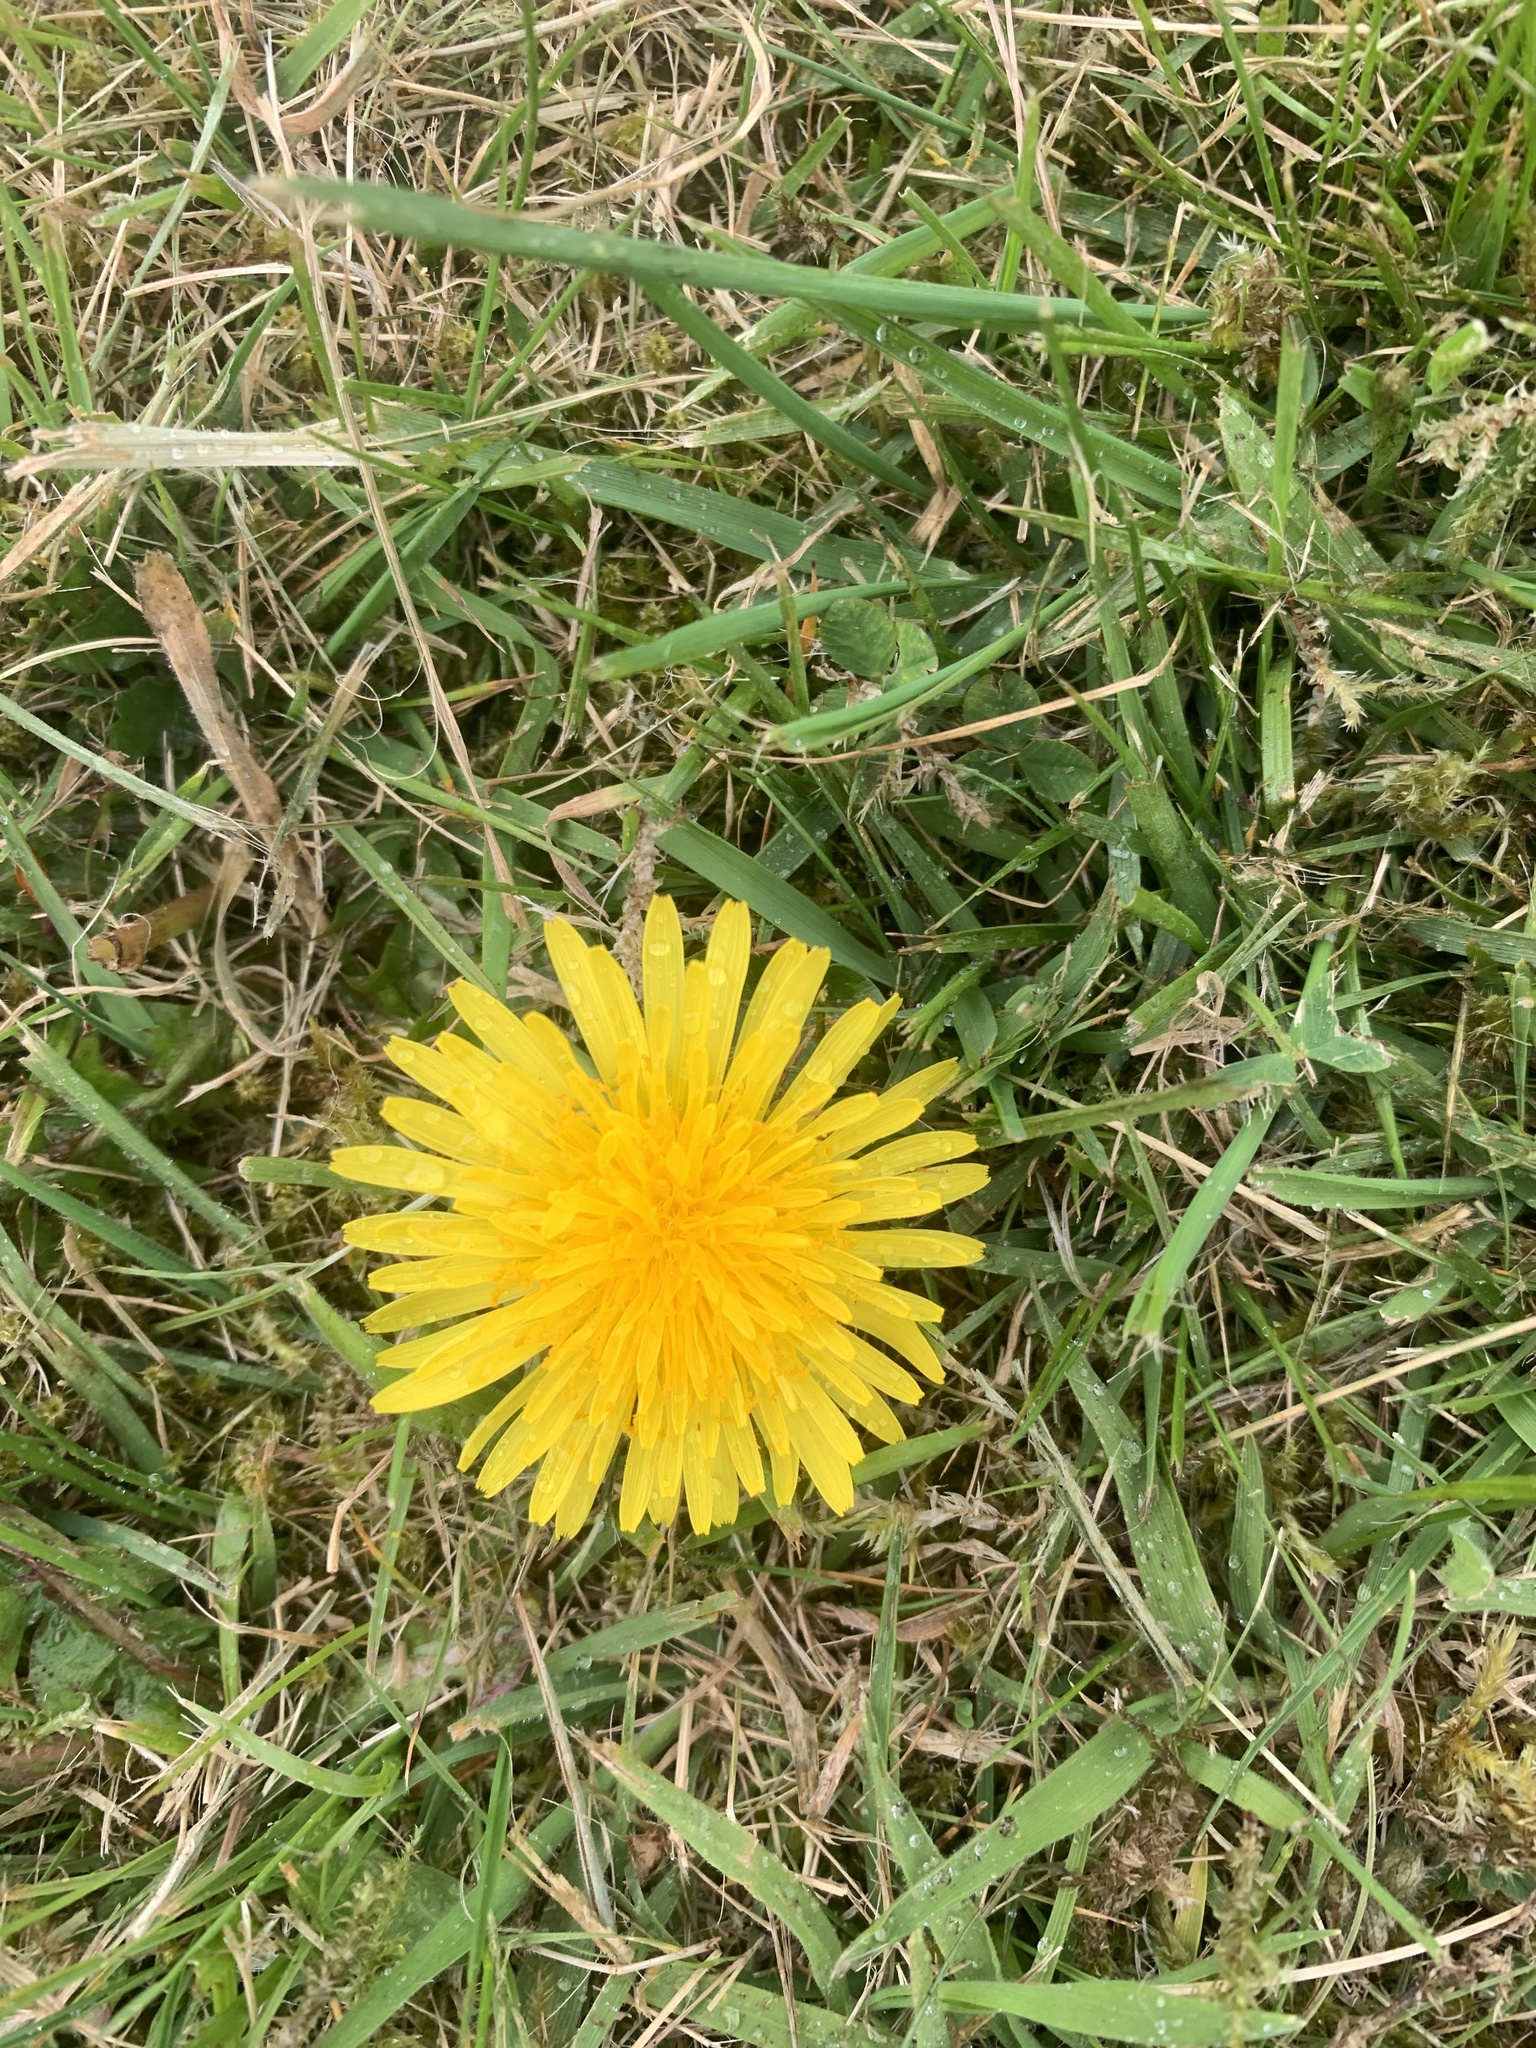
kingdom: Plantae
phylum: Tracheophyta
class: Magnoliopsida
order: Asterales
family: Asteraceae
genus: Taraxacum
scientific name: Taraxacum officinale
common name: Common dandelion
